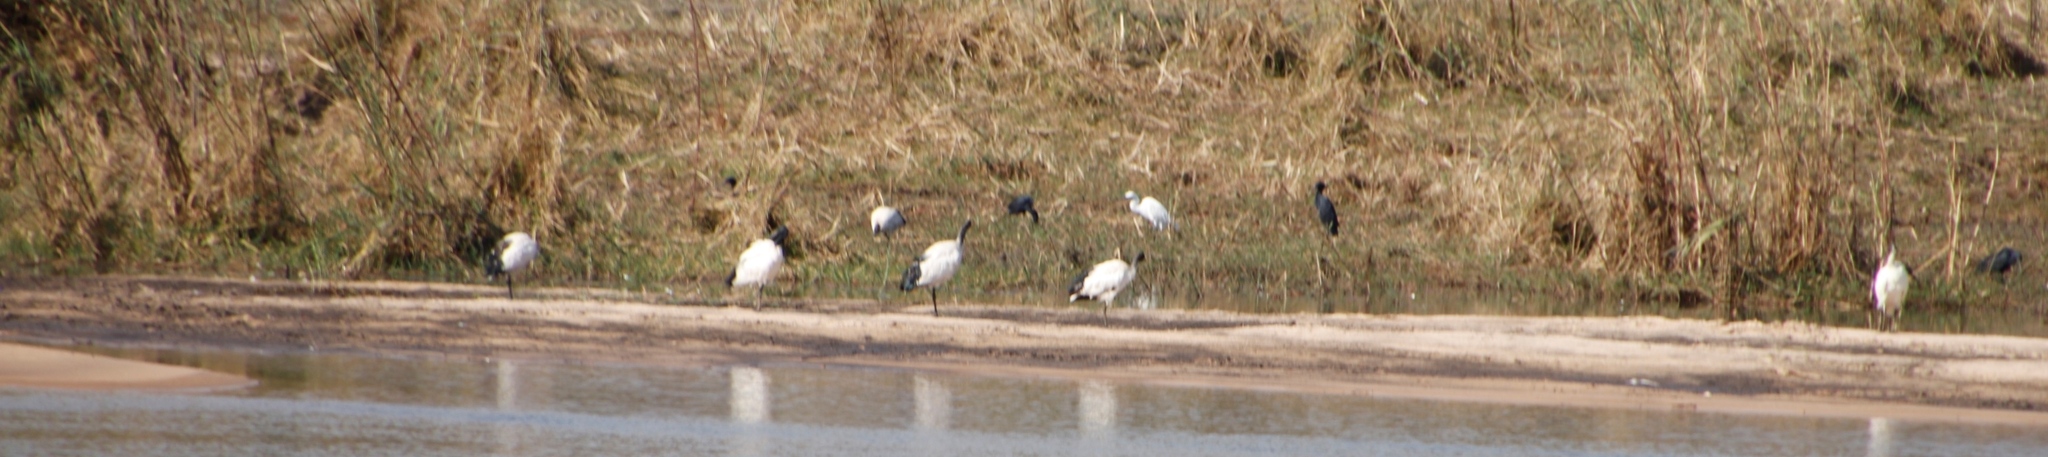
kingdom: Animalia
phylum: Chordata
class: Aves
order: Pelecaniformes
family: Threskiornithidae
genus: Threskiornis
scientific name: Threskiornis aethiopicus
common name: Sacred ibis
